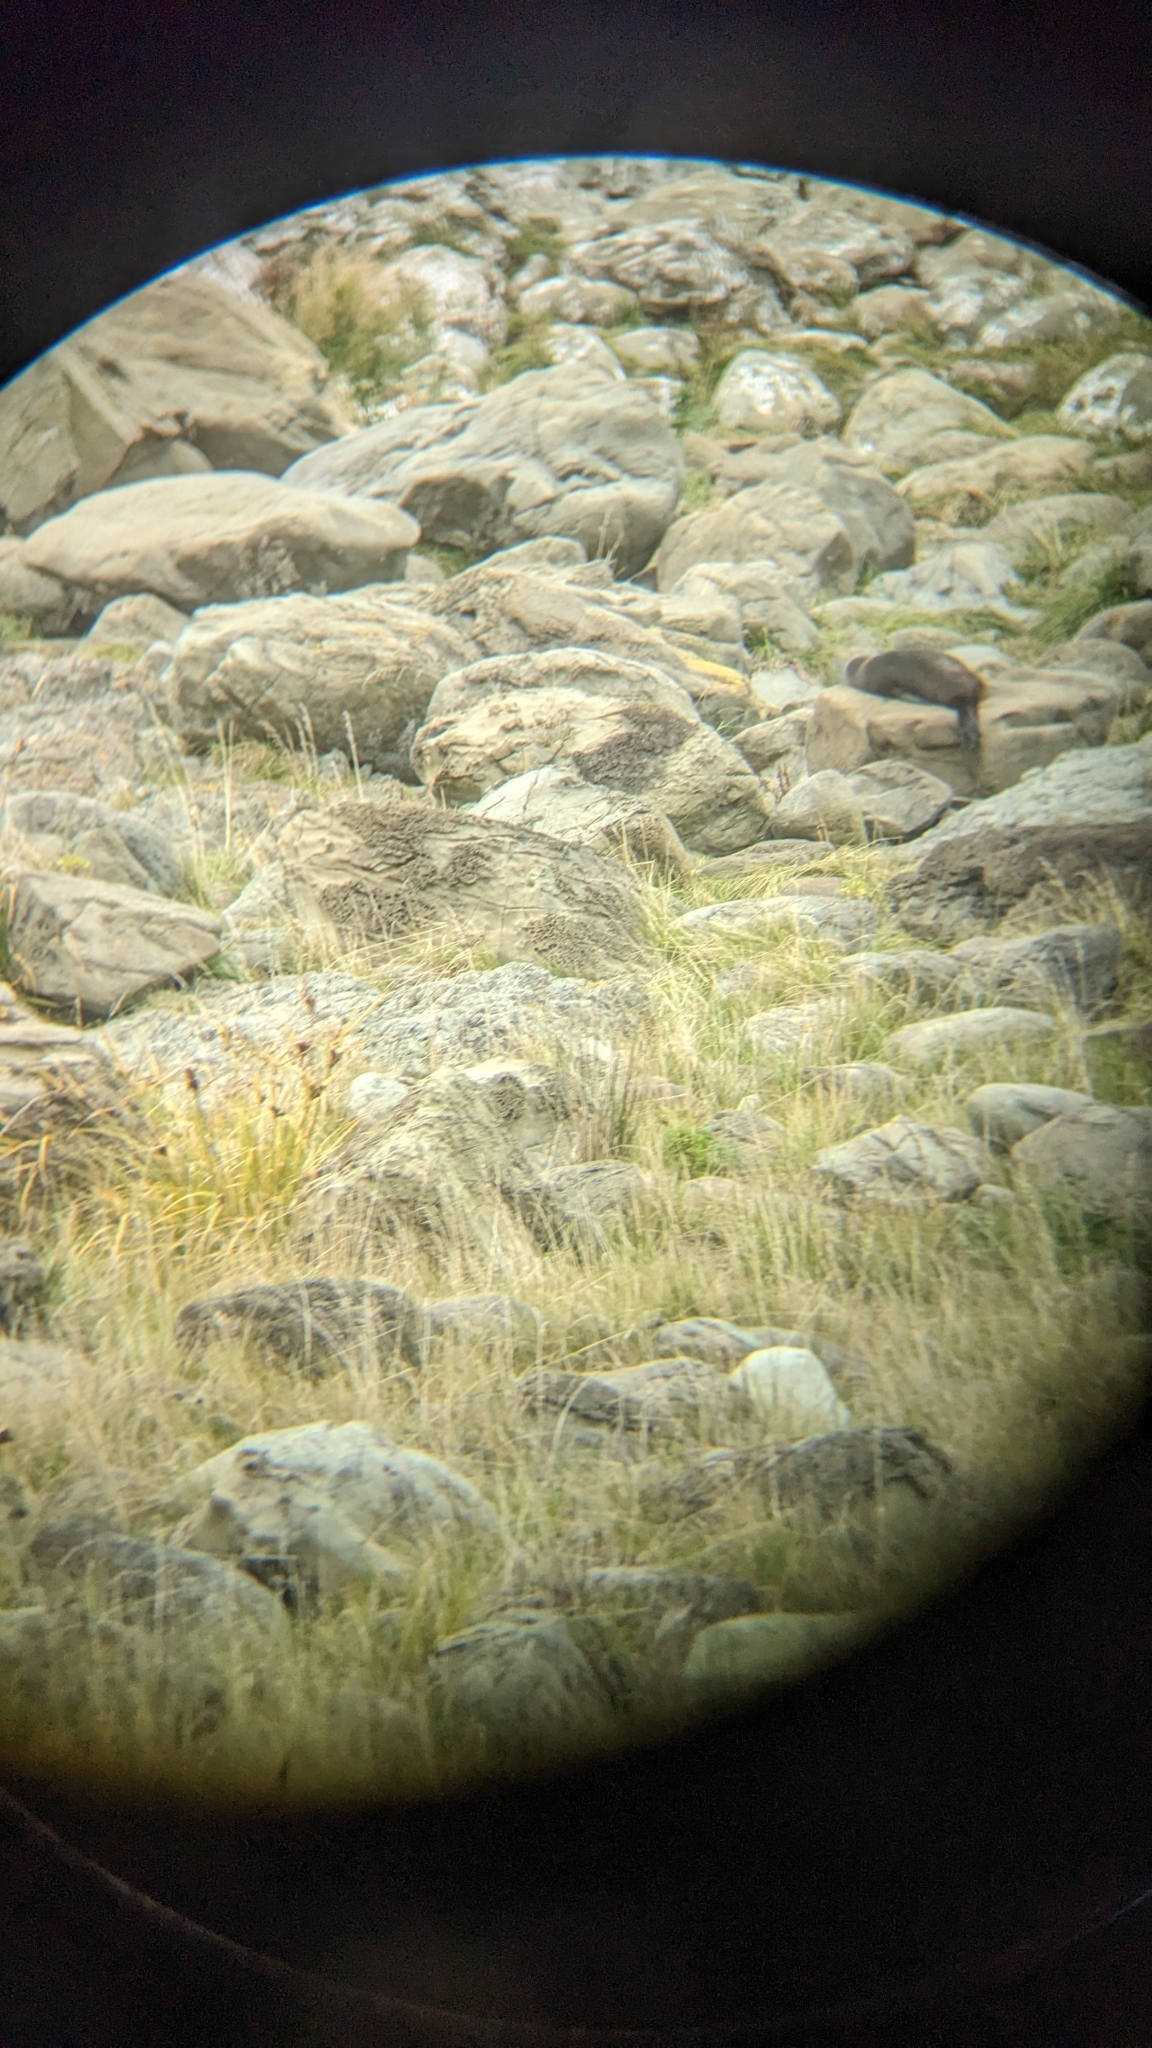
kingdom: Animalia
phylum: Chordata
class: Mammalia
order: Carnivora
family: Otariidae
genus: Arctocephalus
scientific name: Arctocephalus forsteri
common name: New zealand fur seal
